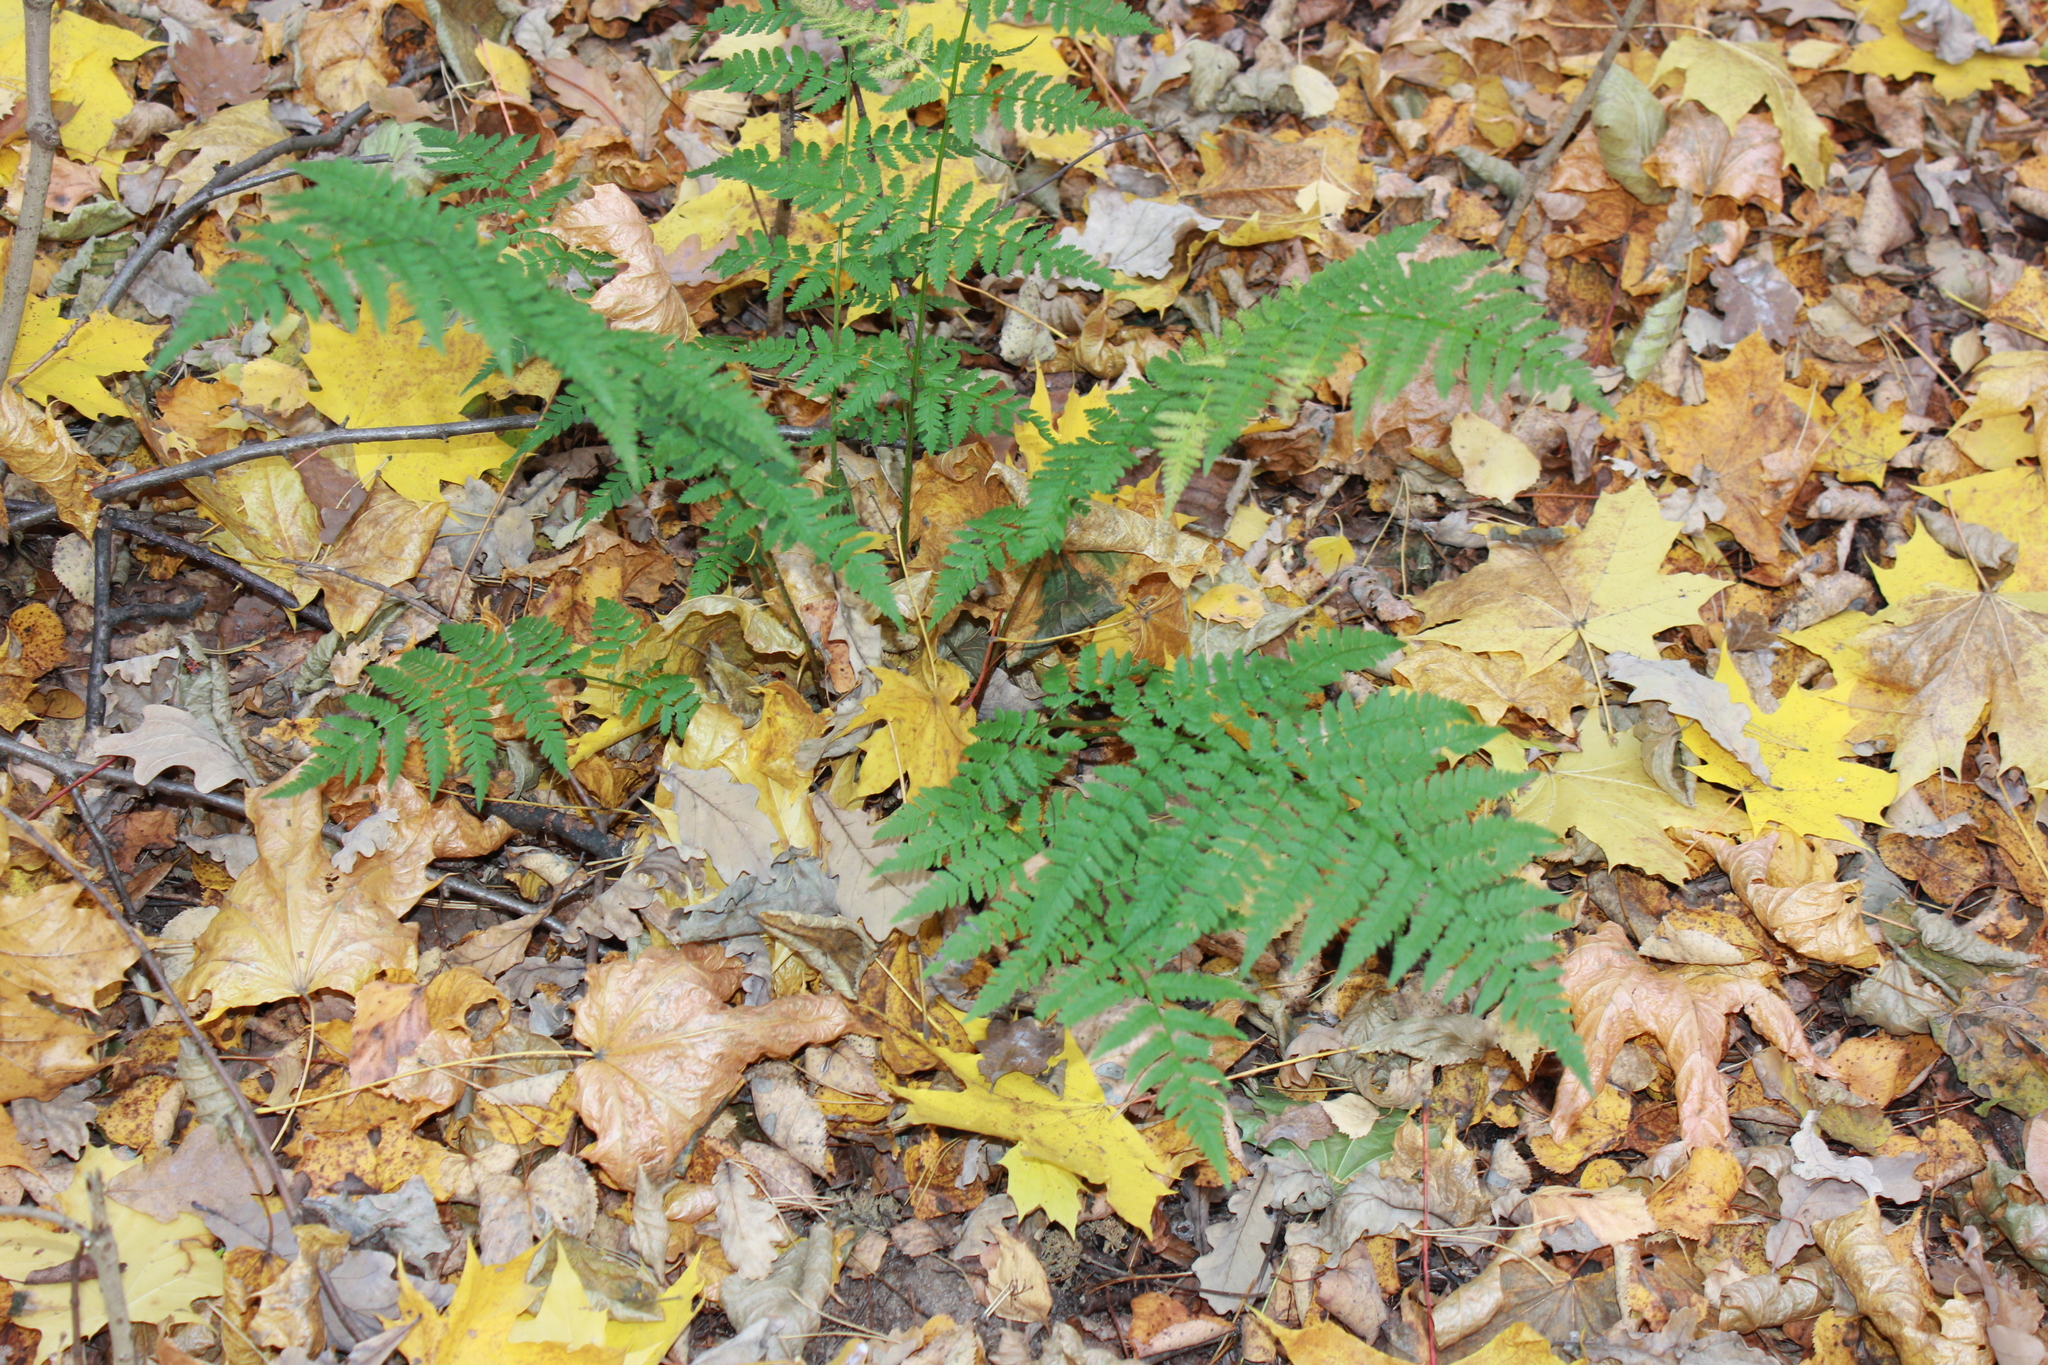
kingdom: Plantae
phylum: Tracheophyta
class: Polypodiopsida
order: Polypodiales
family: Dryopteridaceae
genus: Dryopteris
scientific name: Dryopteris carthusiana
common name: Narrow buckler-fern
